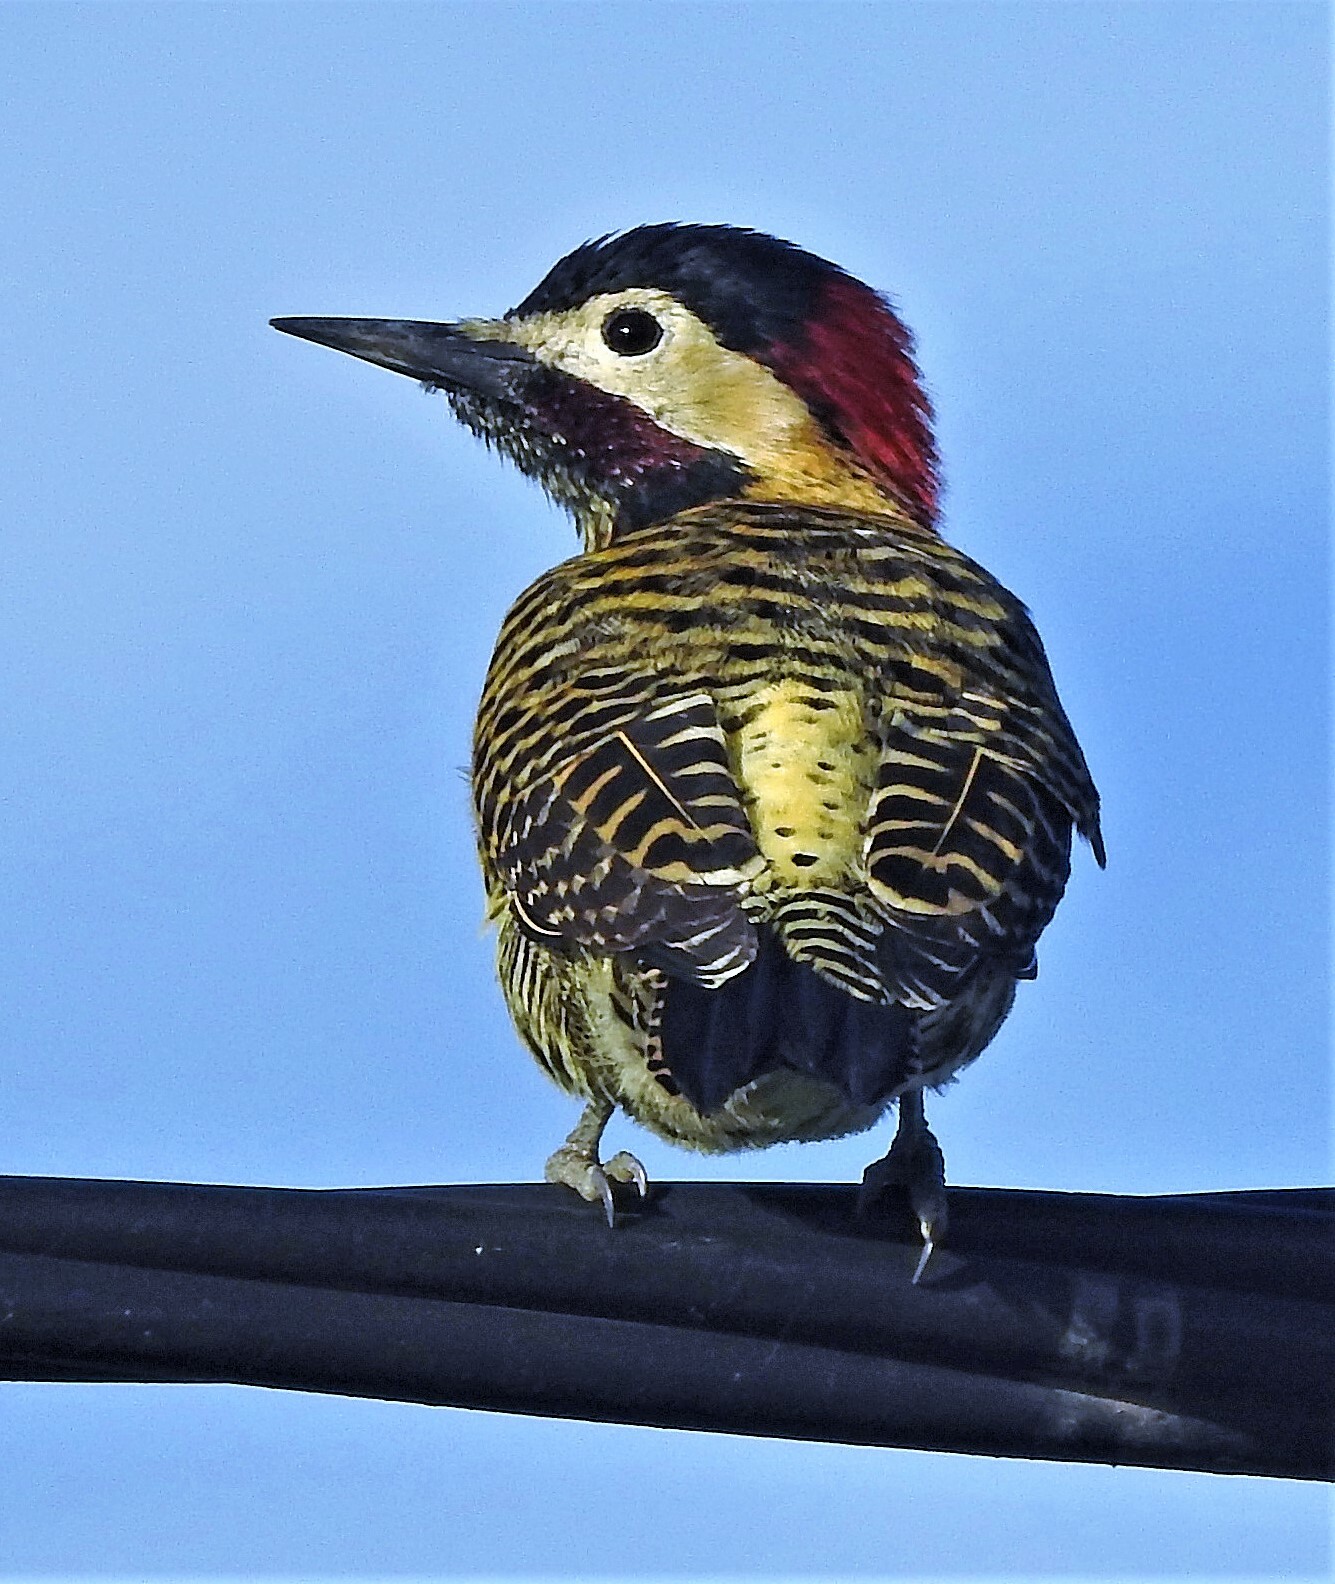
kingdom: Animalia
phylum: Chordata
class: Aves
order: Piciformes
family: Picidae
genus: Colaptes
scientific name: Colaptes melanochloros
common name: Green-barred woodpecker
